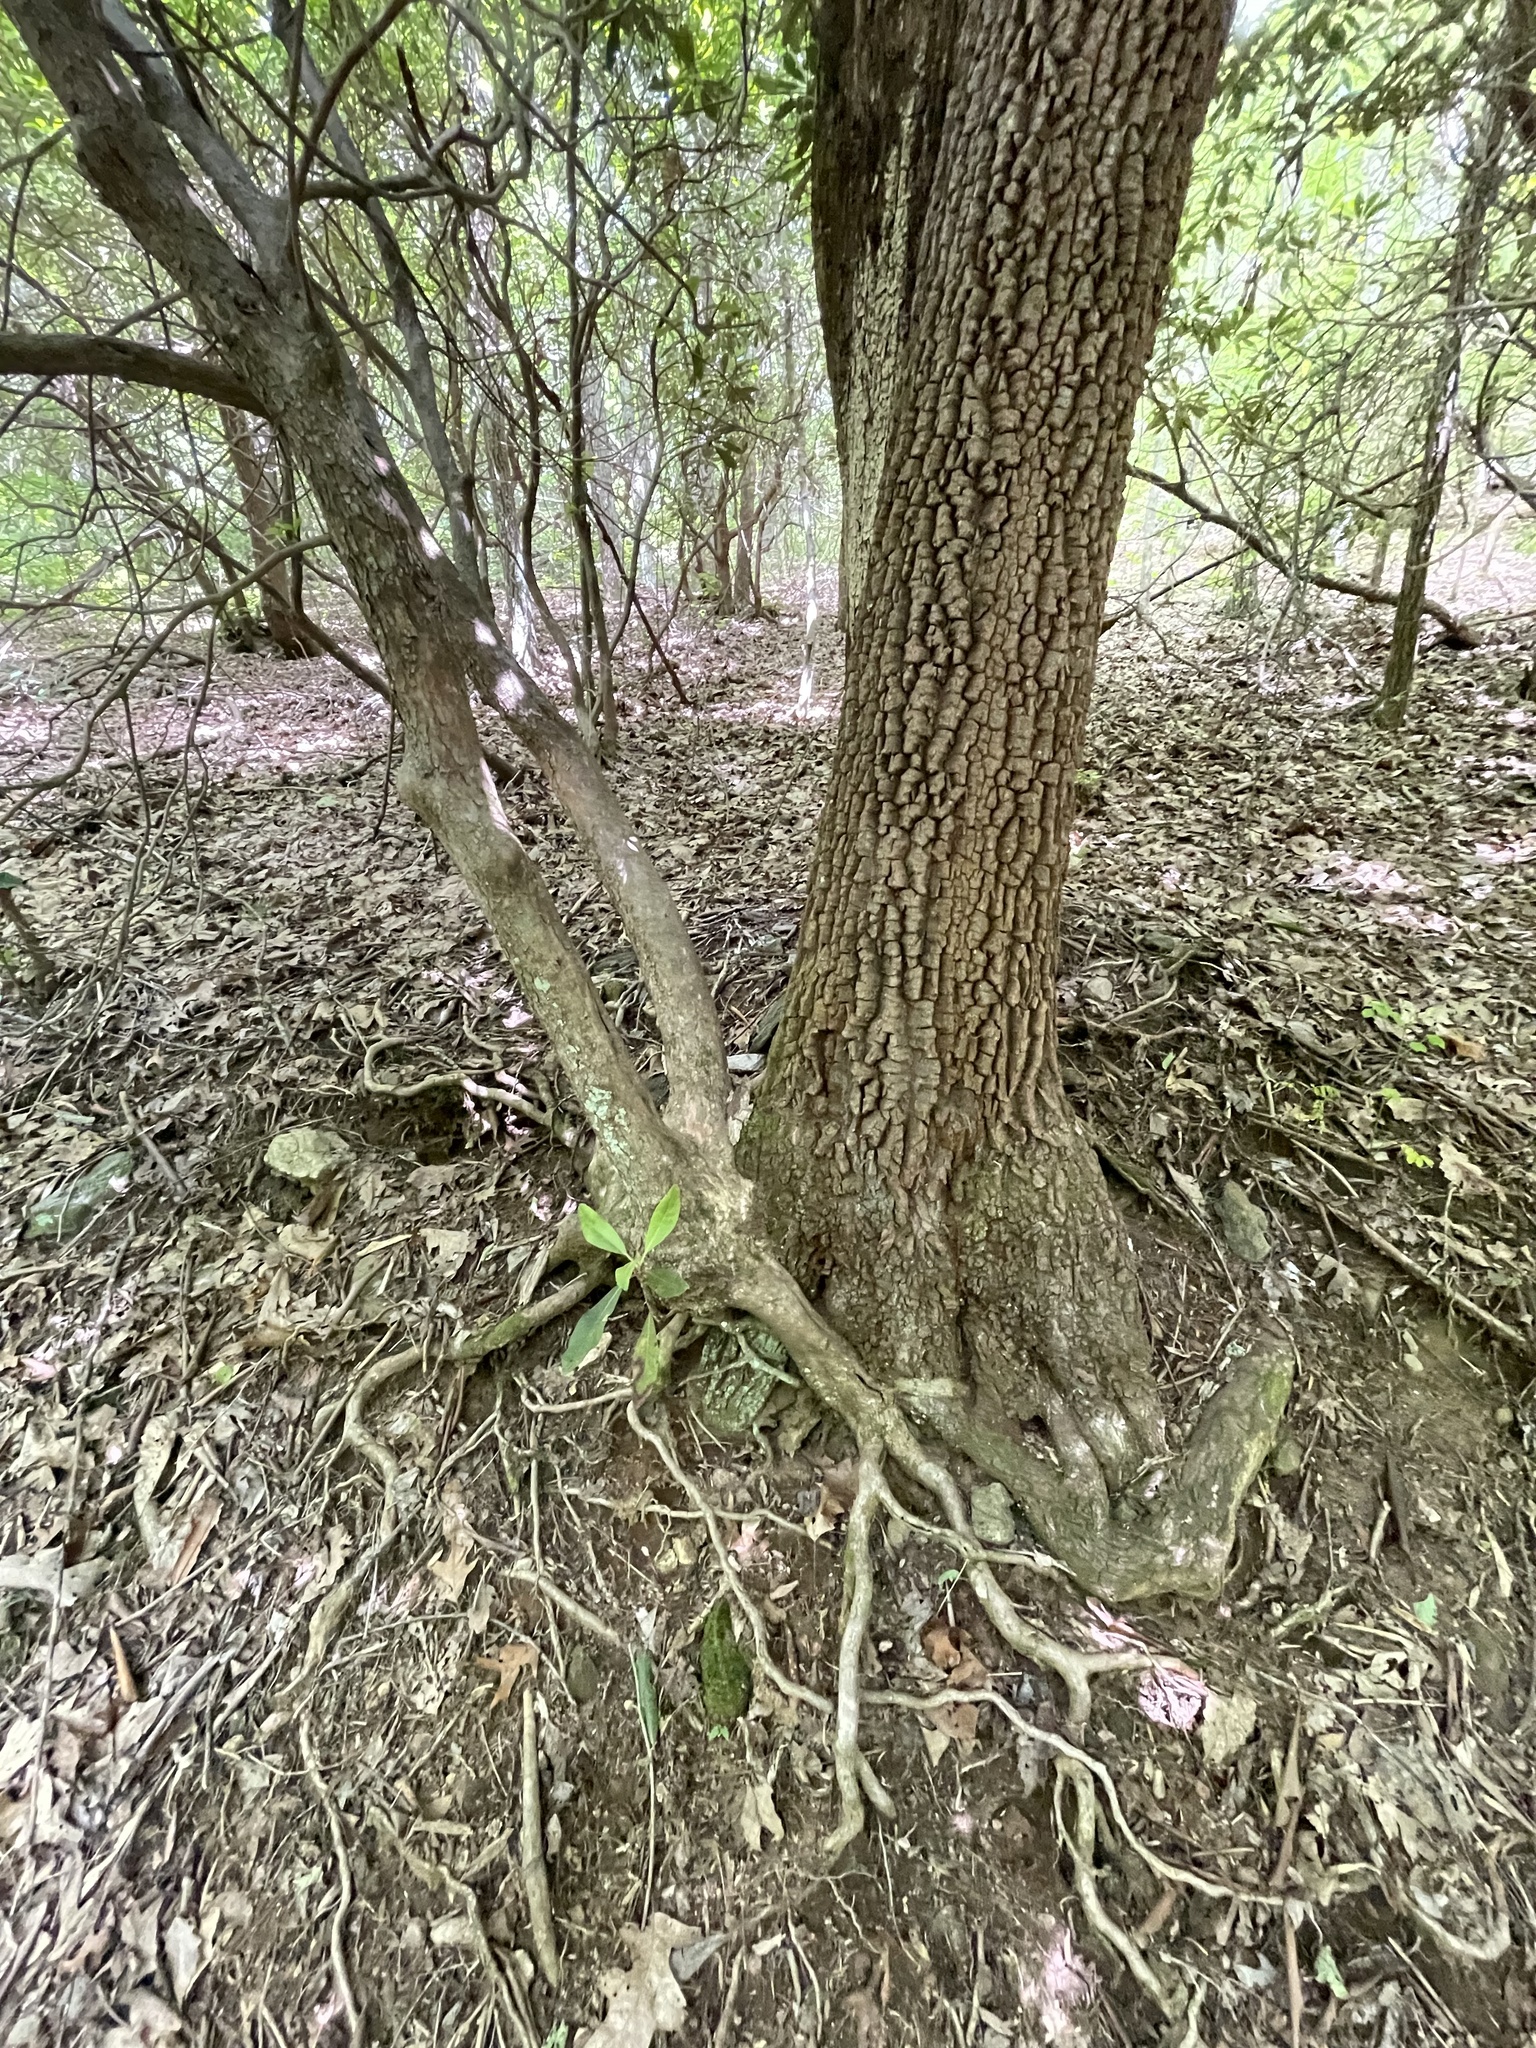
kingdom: Plantae
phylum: Tracheophyta
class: Magnoliopsida
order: Ericales
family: Ericaceae
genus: Oxydendrum
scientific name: Oxydendrum arboreum
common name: Sourwood
